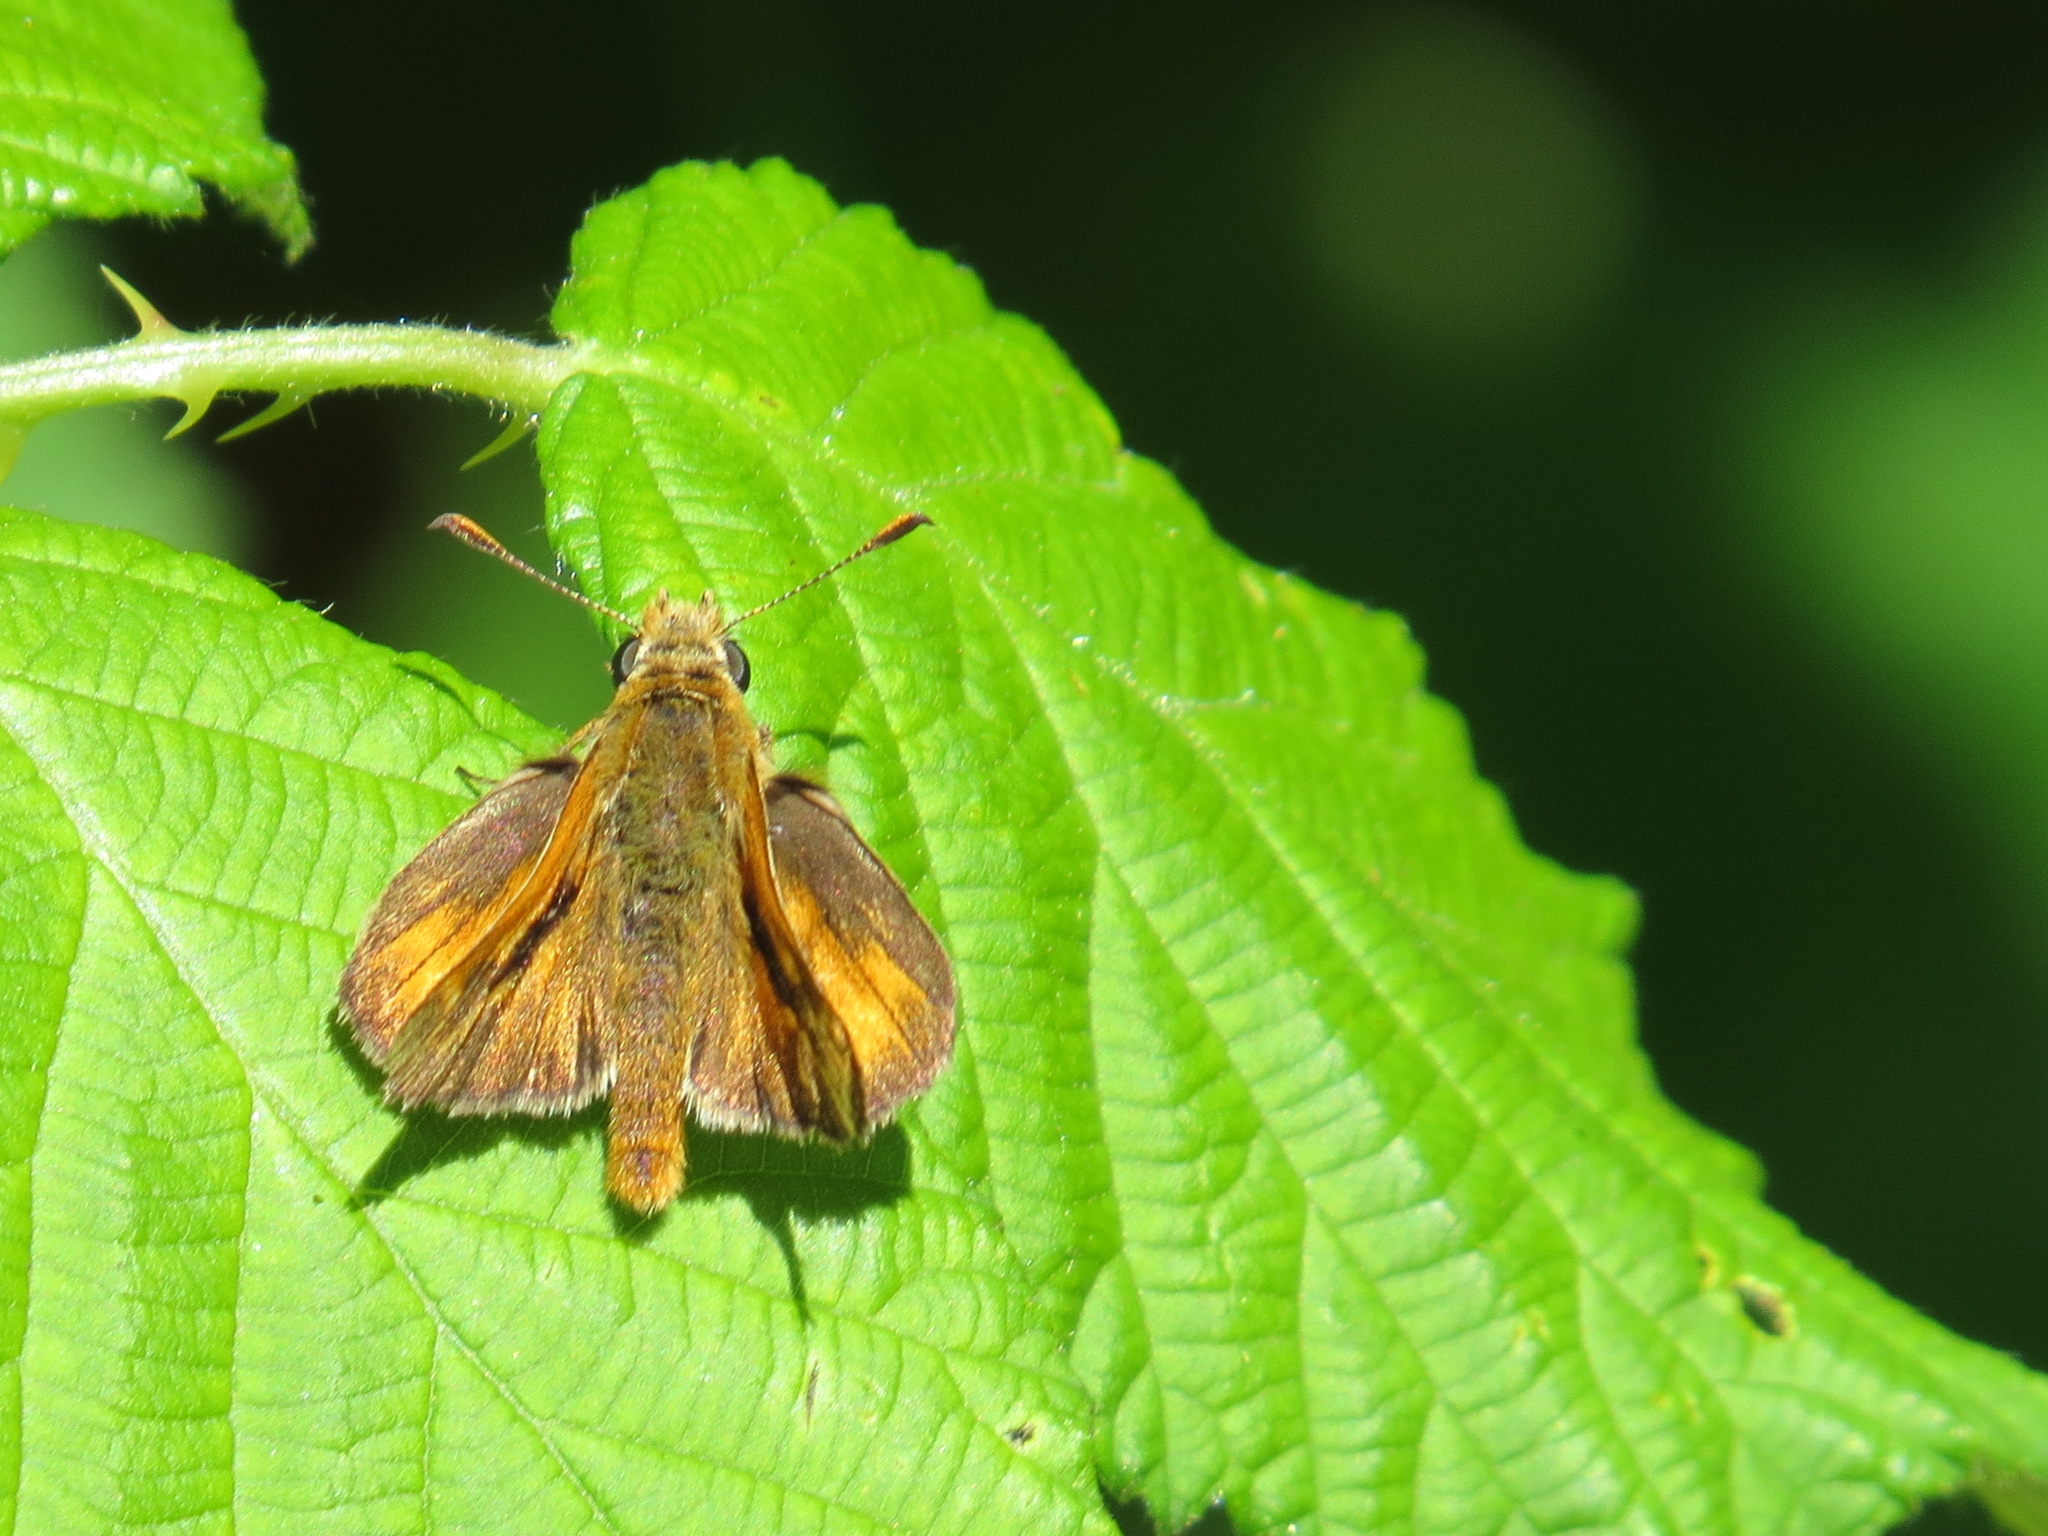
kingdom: Animalia
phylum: Arthropoda
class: Insecta
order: Lepidoptera
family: Hesperiidae
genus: Ochlodes
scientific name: Ochlodes agricola
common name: Rural skipper
